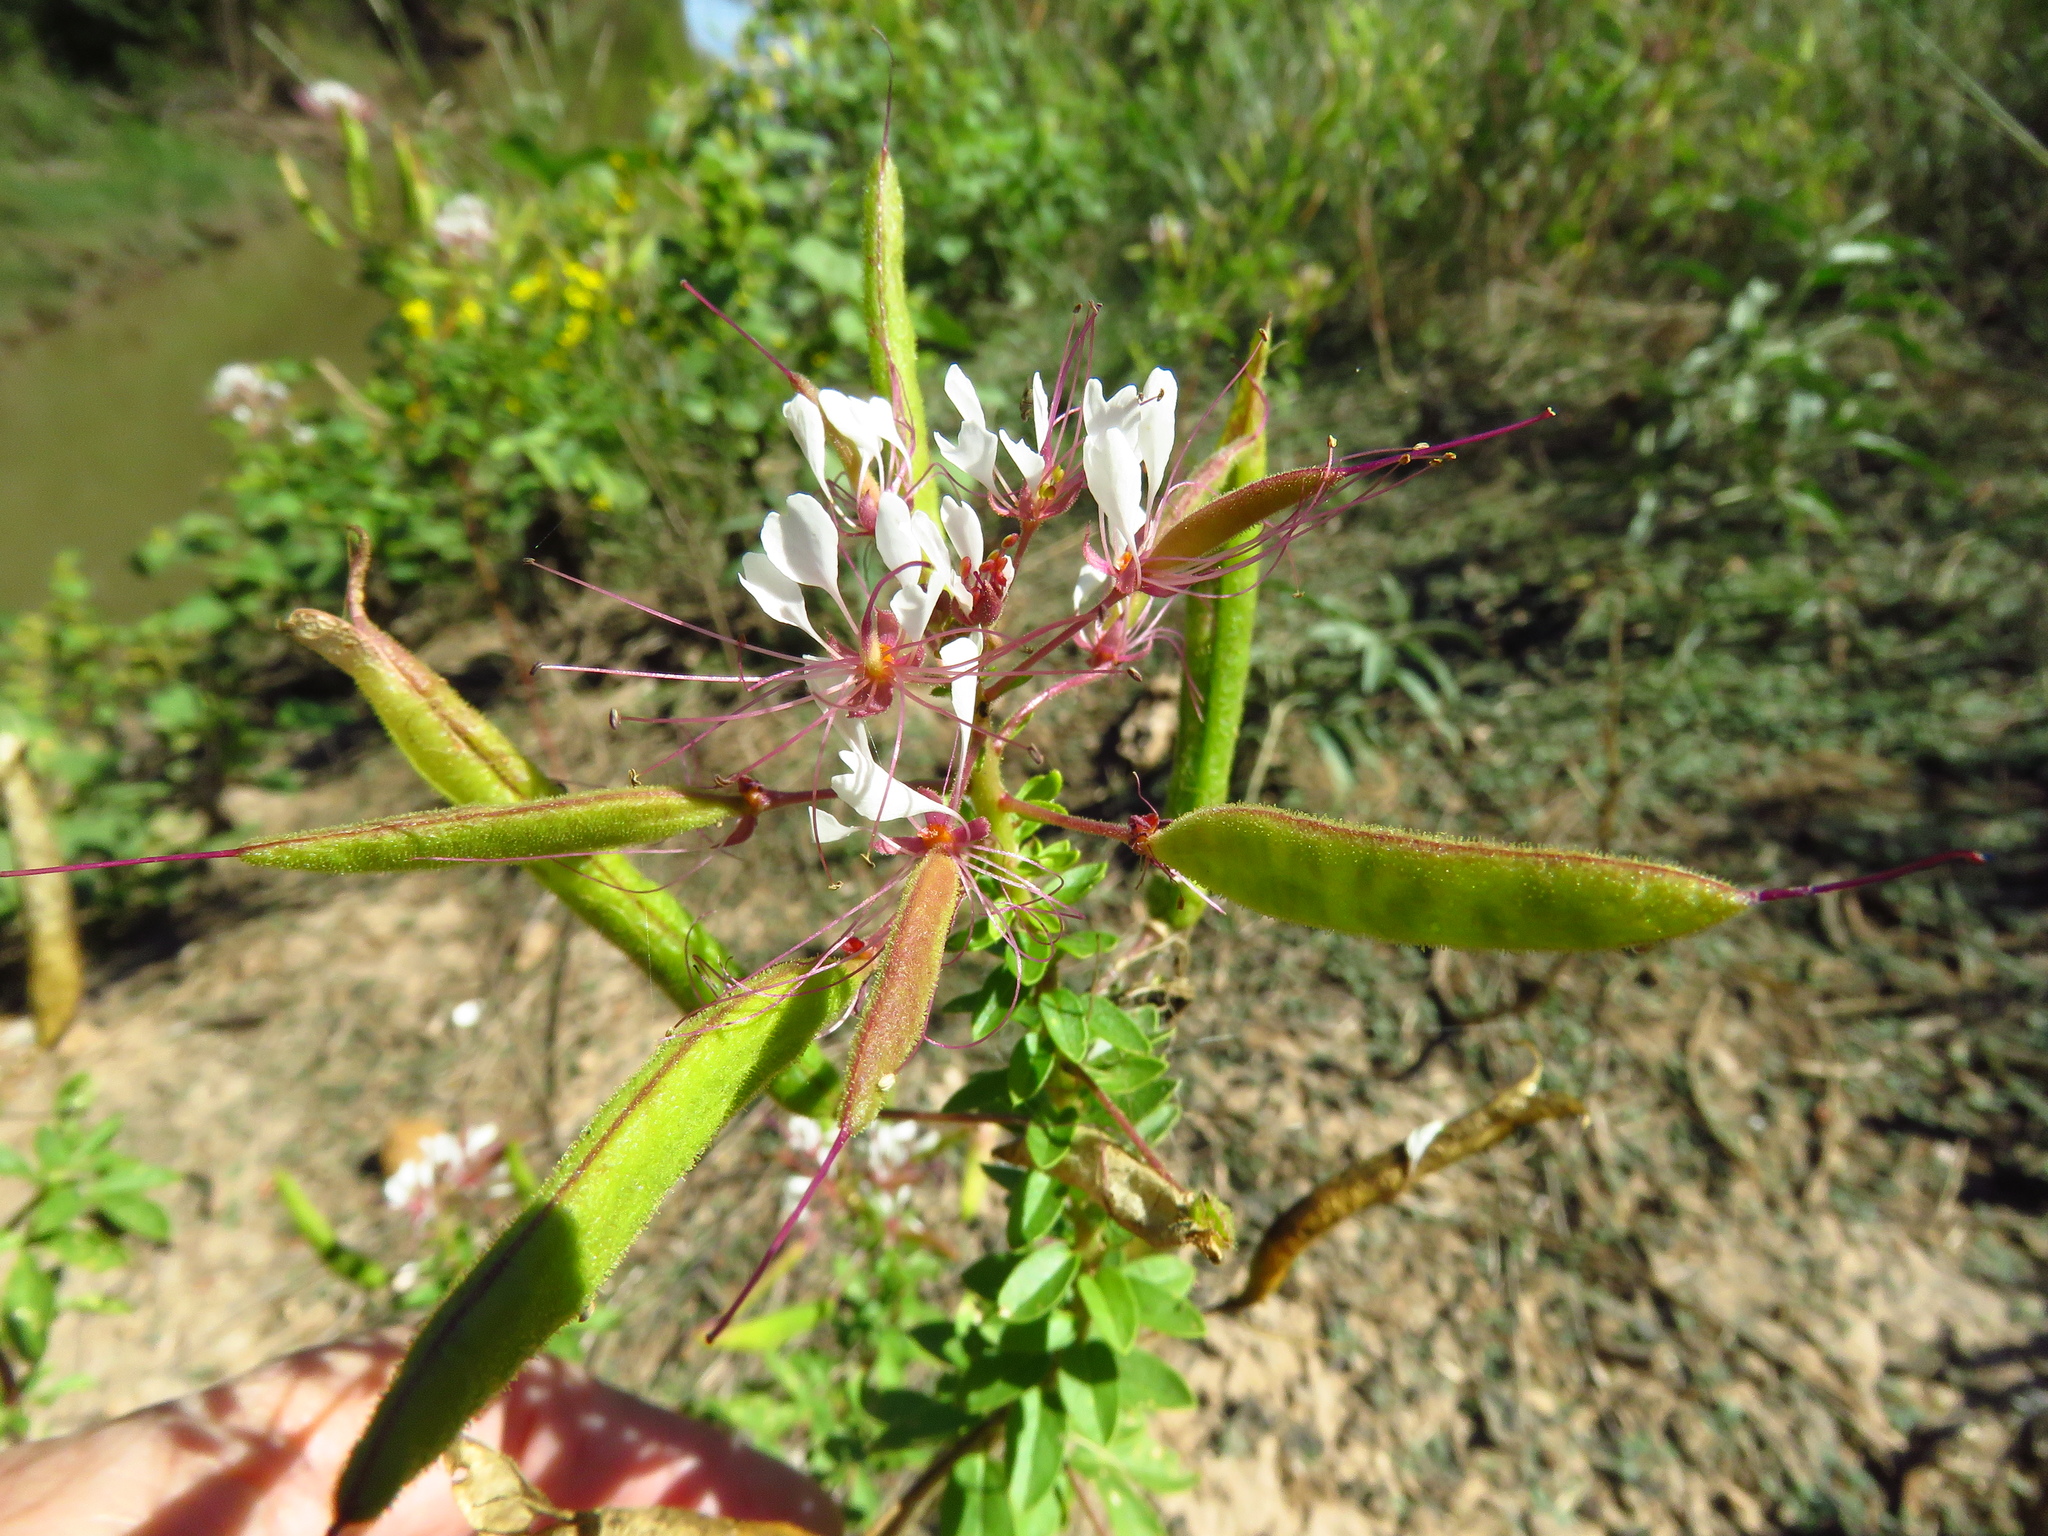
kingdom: Plantae
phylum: Tracheophyta
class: Magnoliopsida
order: Brassicales
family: Cleomaceae
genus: Polanisia
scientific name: Polanisia dodecandra
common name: Clammyweed
